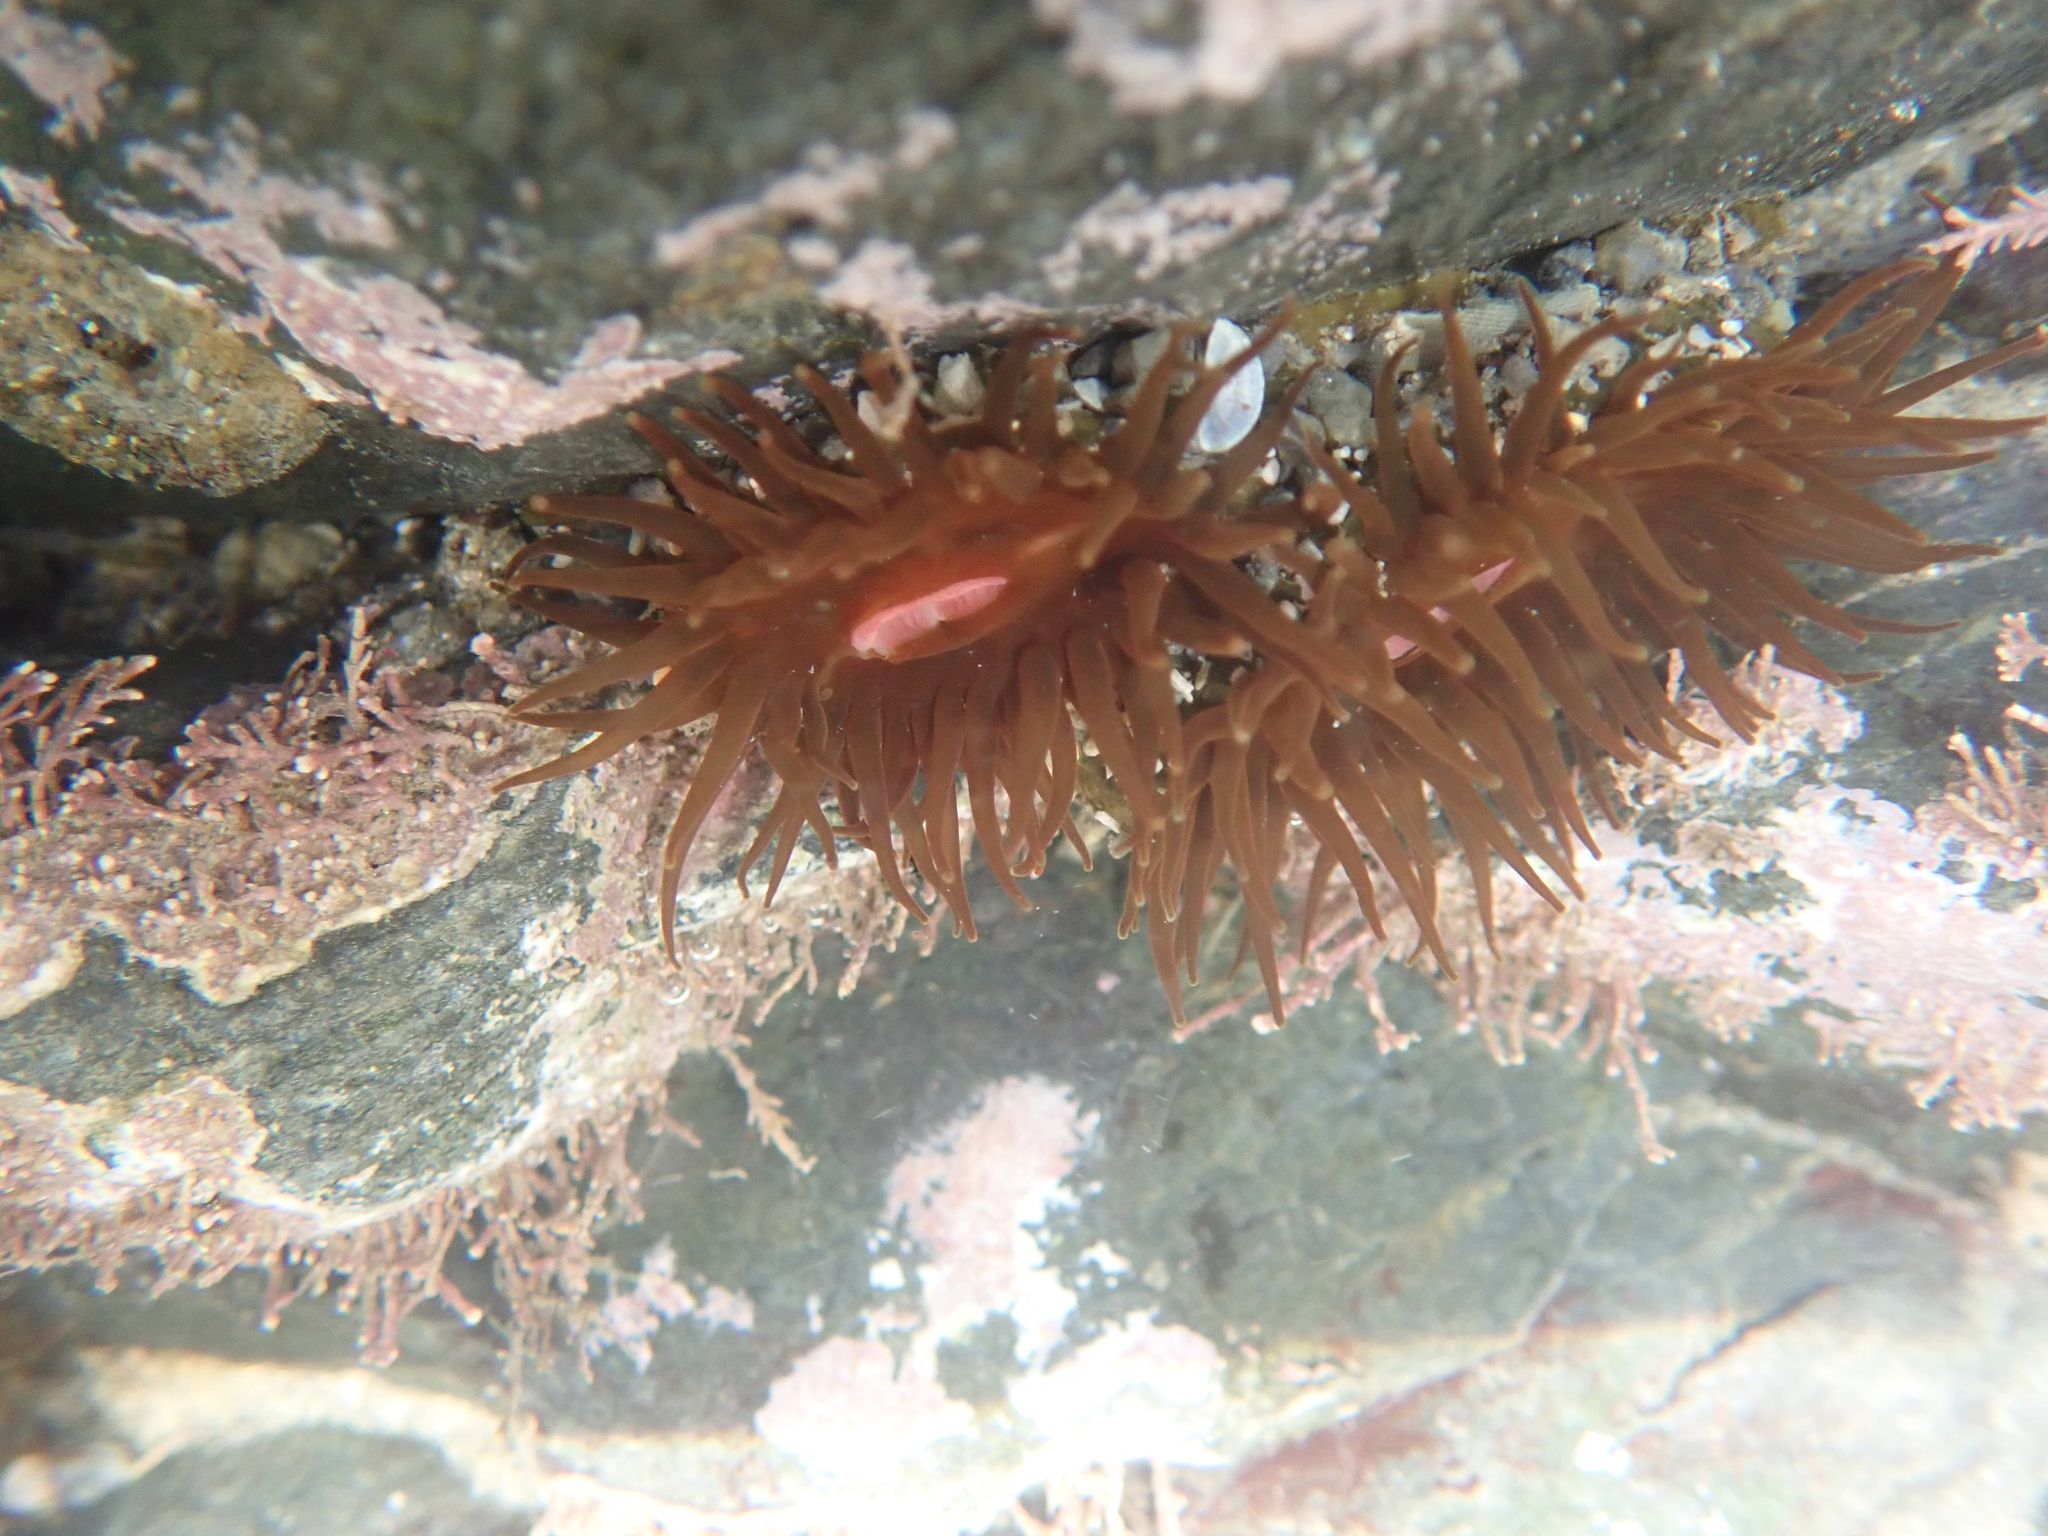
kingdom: Animalia
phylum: Cnidaria
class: Anthozoa
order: Actiniaria
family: Actiniidae
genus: Isactinia
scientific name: Isactinia olivacea
